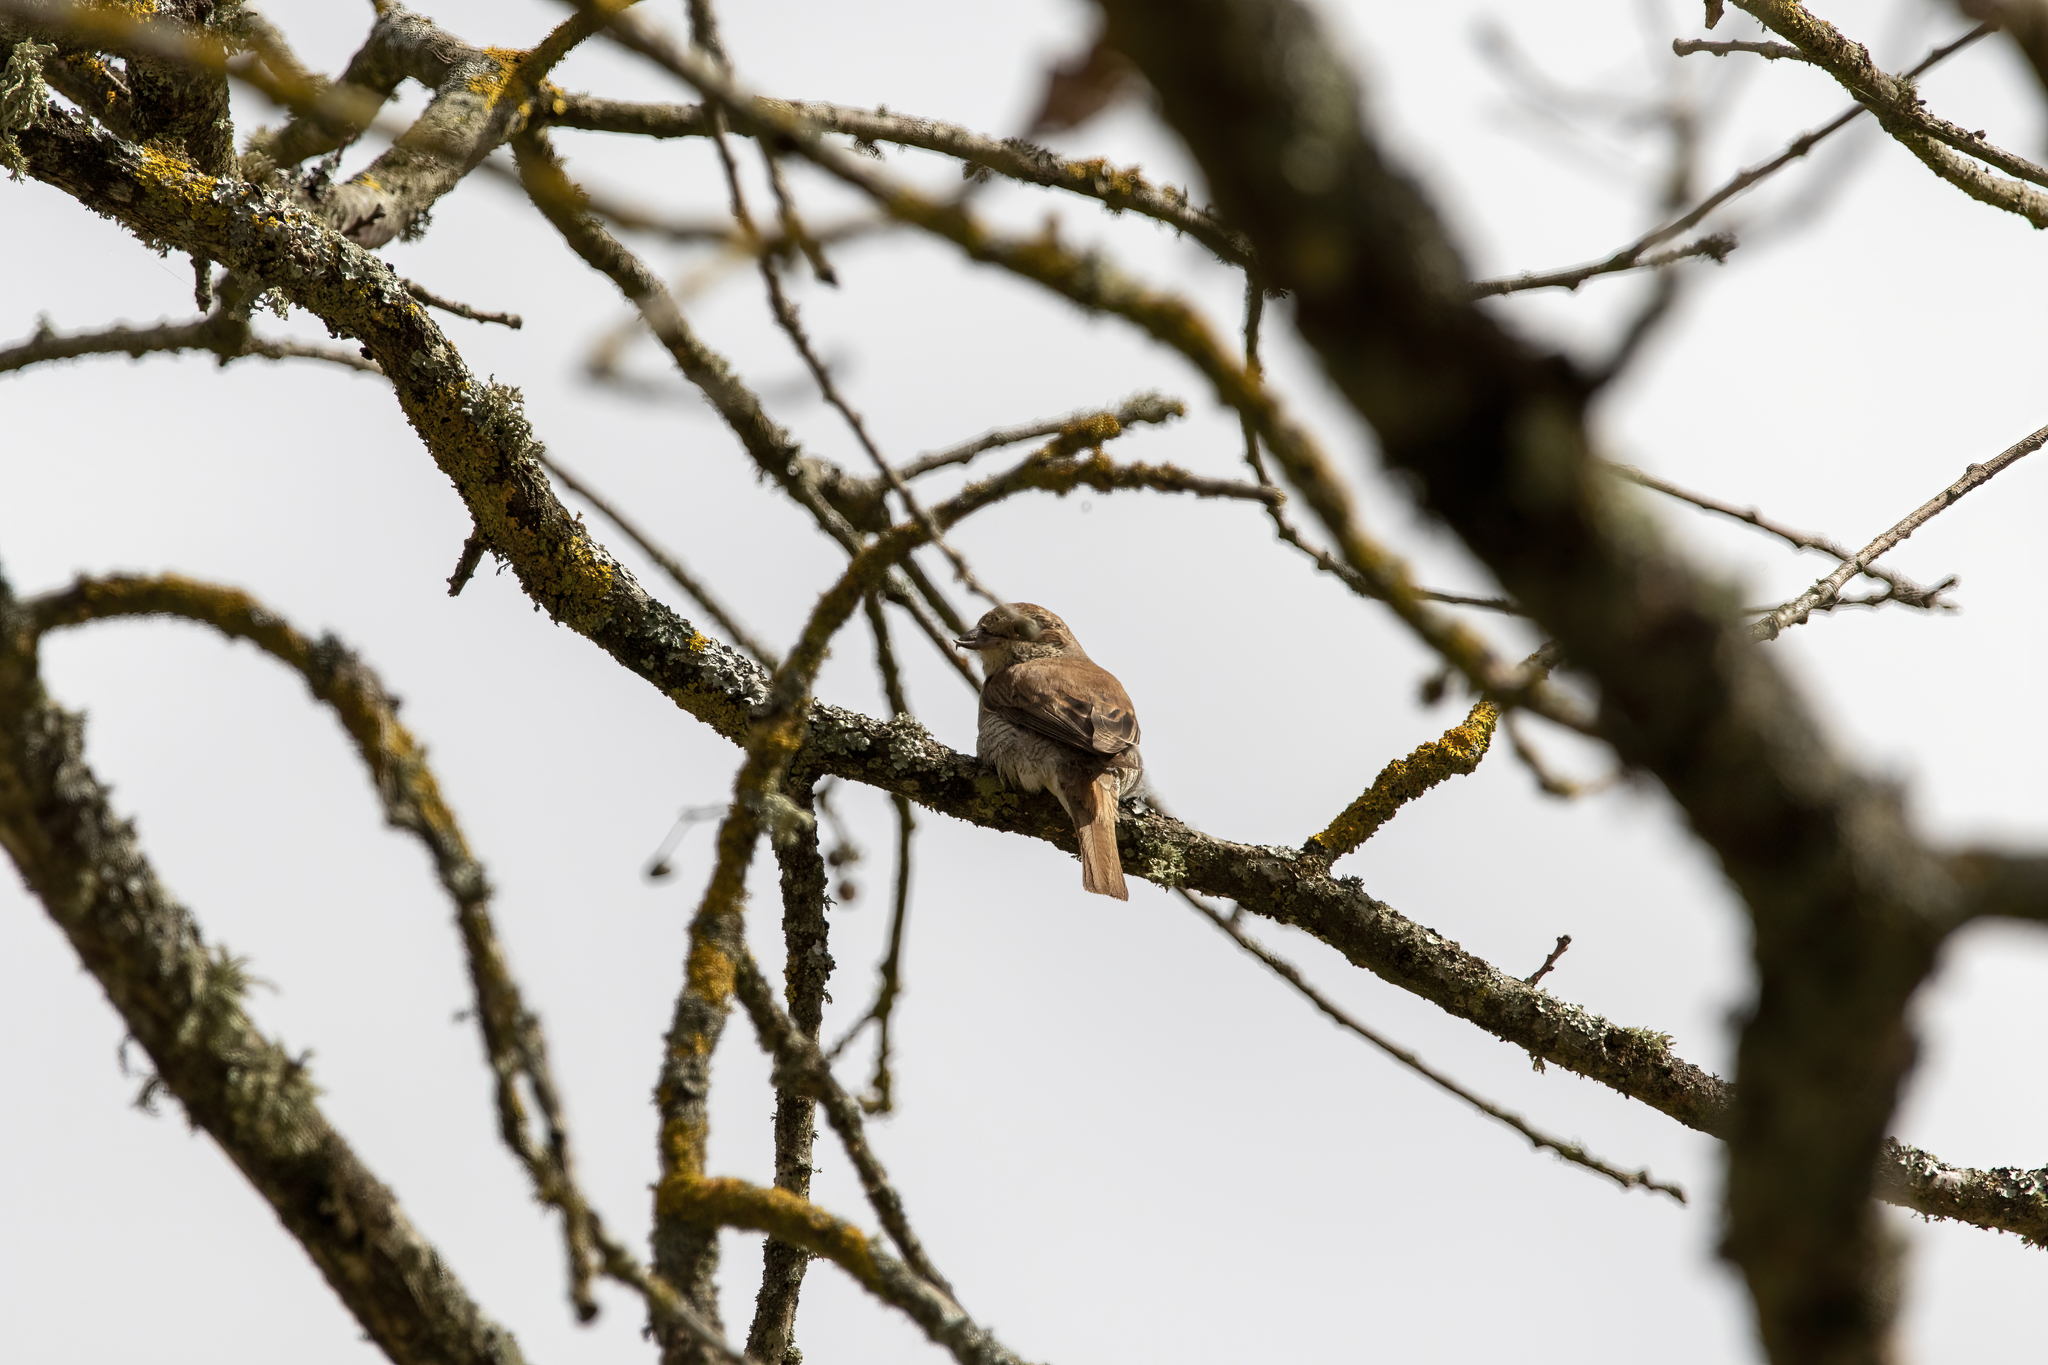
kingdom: Animalia
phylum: Chordata
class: Aves
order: Passeriformes
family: Laniidae
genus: Lanius
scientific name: Lanius collurio
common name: Red-backed shrike
